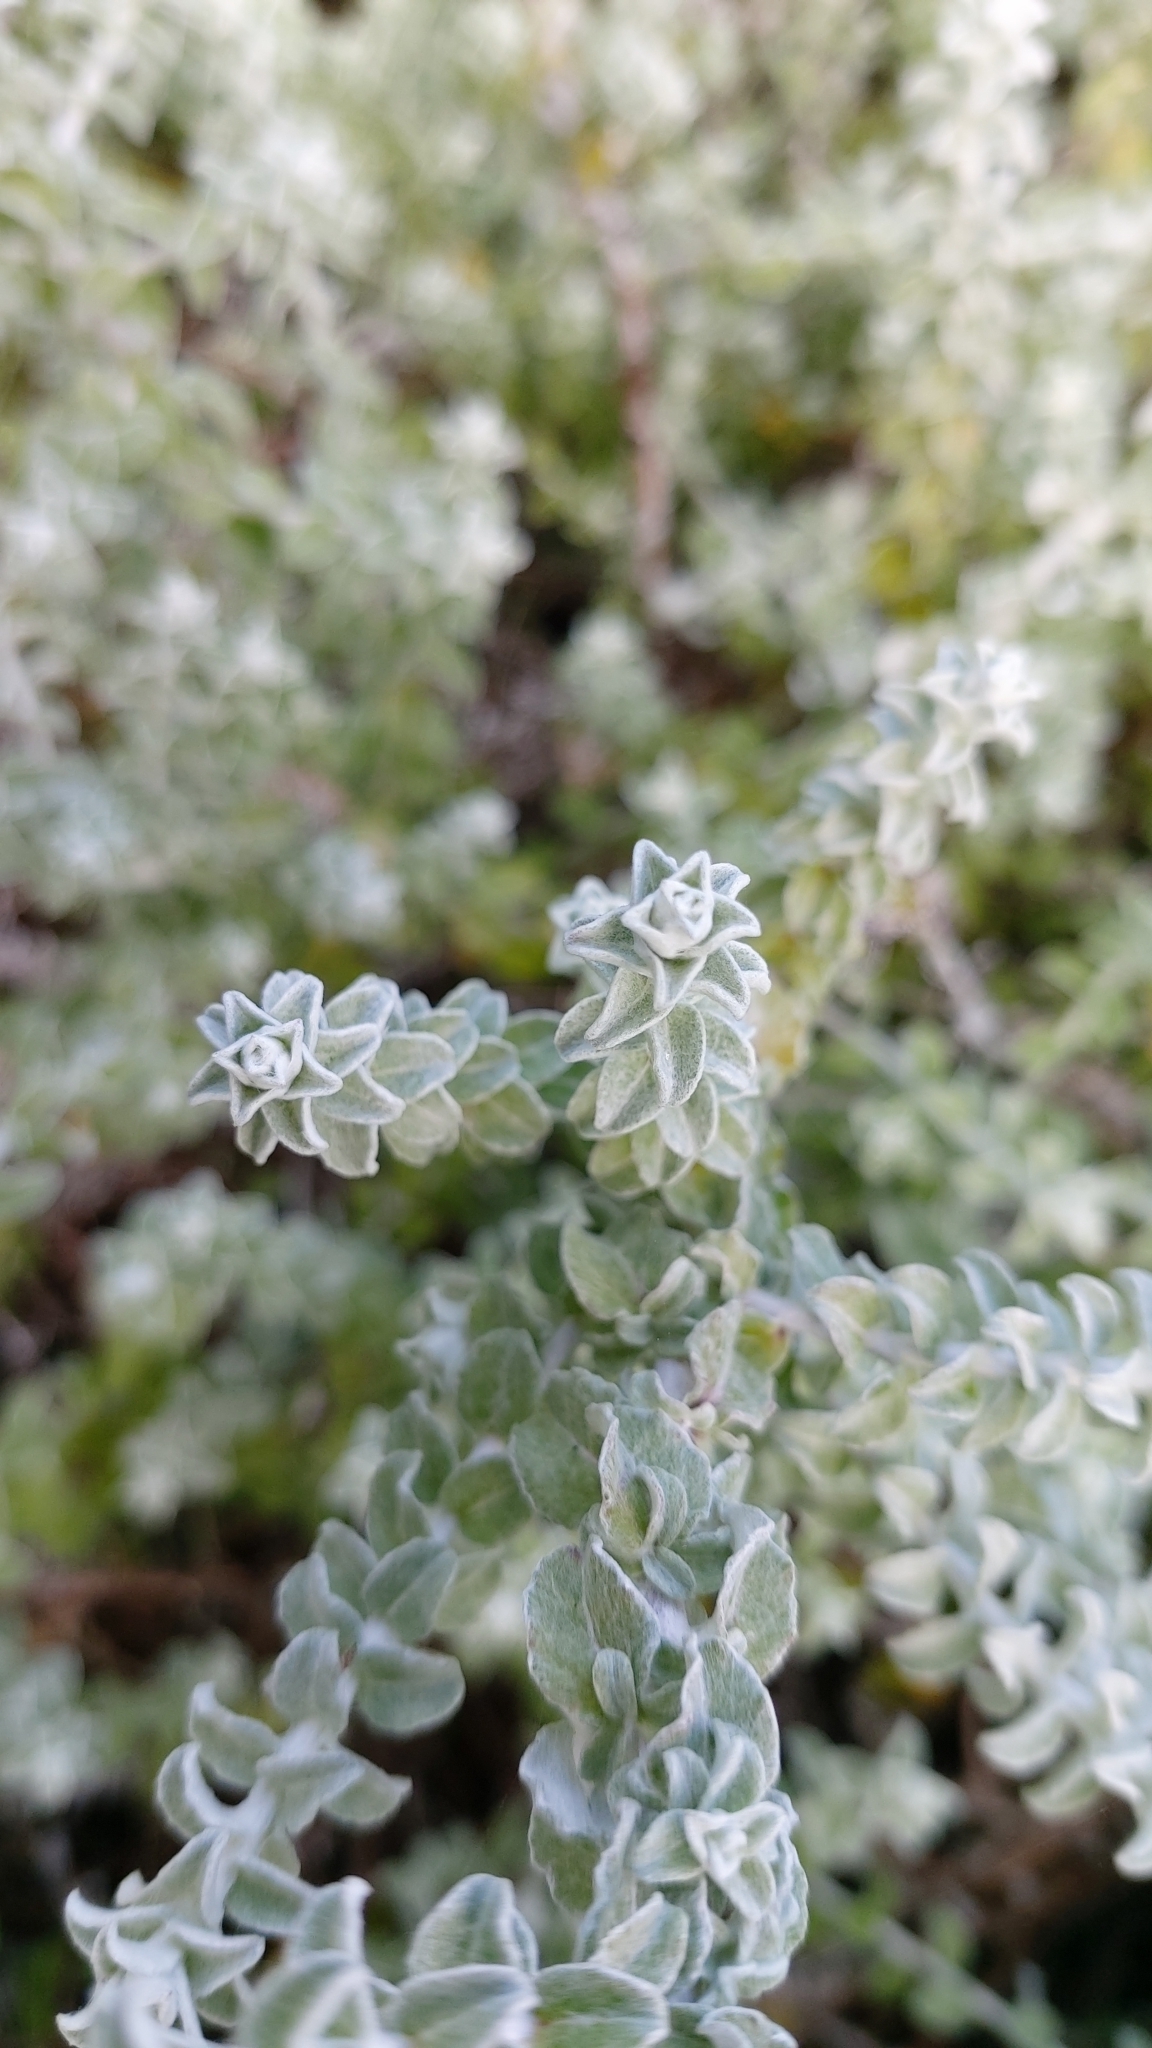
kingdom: Plantae
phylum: Tracheophyta
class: Magnoliopsida
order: Asterales
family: Asteraceae
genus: Plecostachys
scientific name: Plecostachys serpyllifolia
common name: Petite licorice
